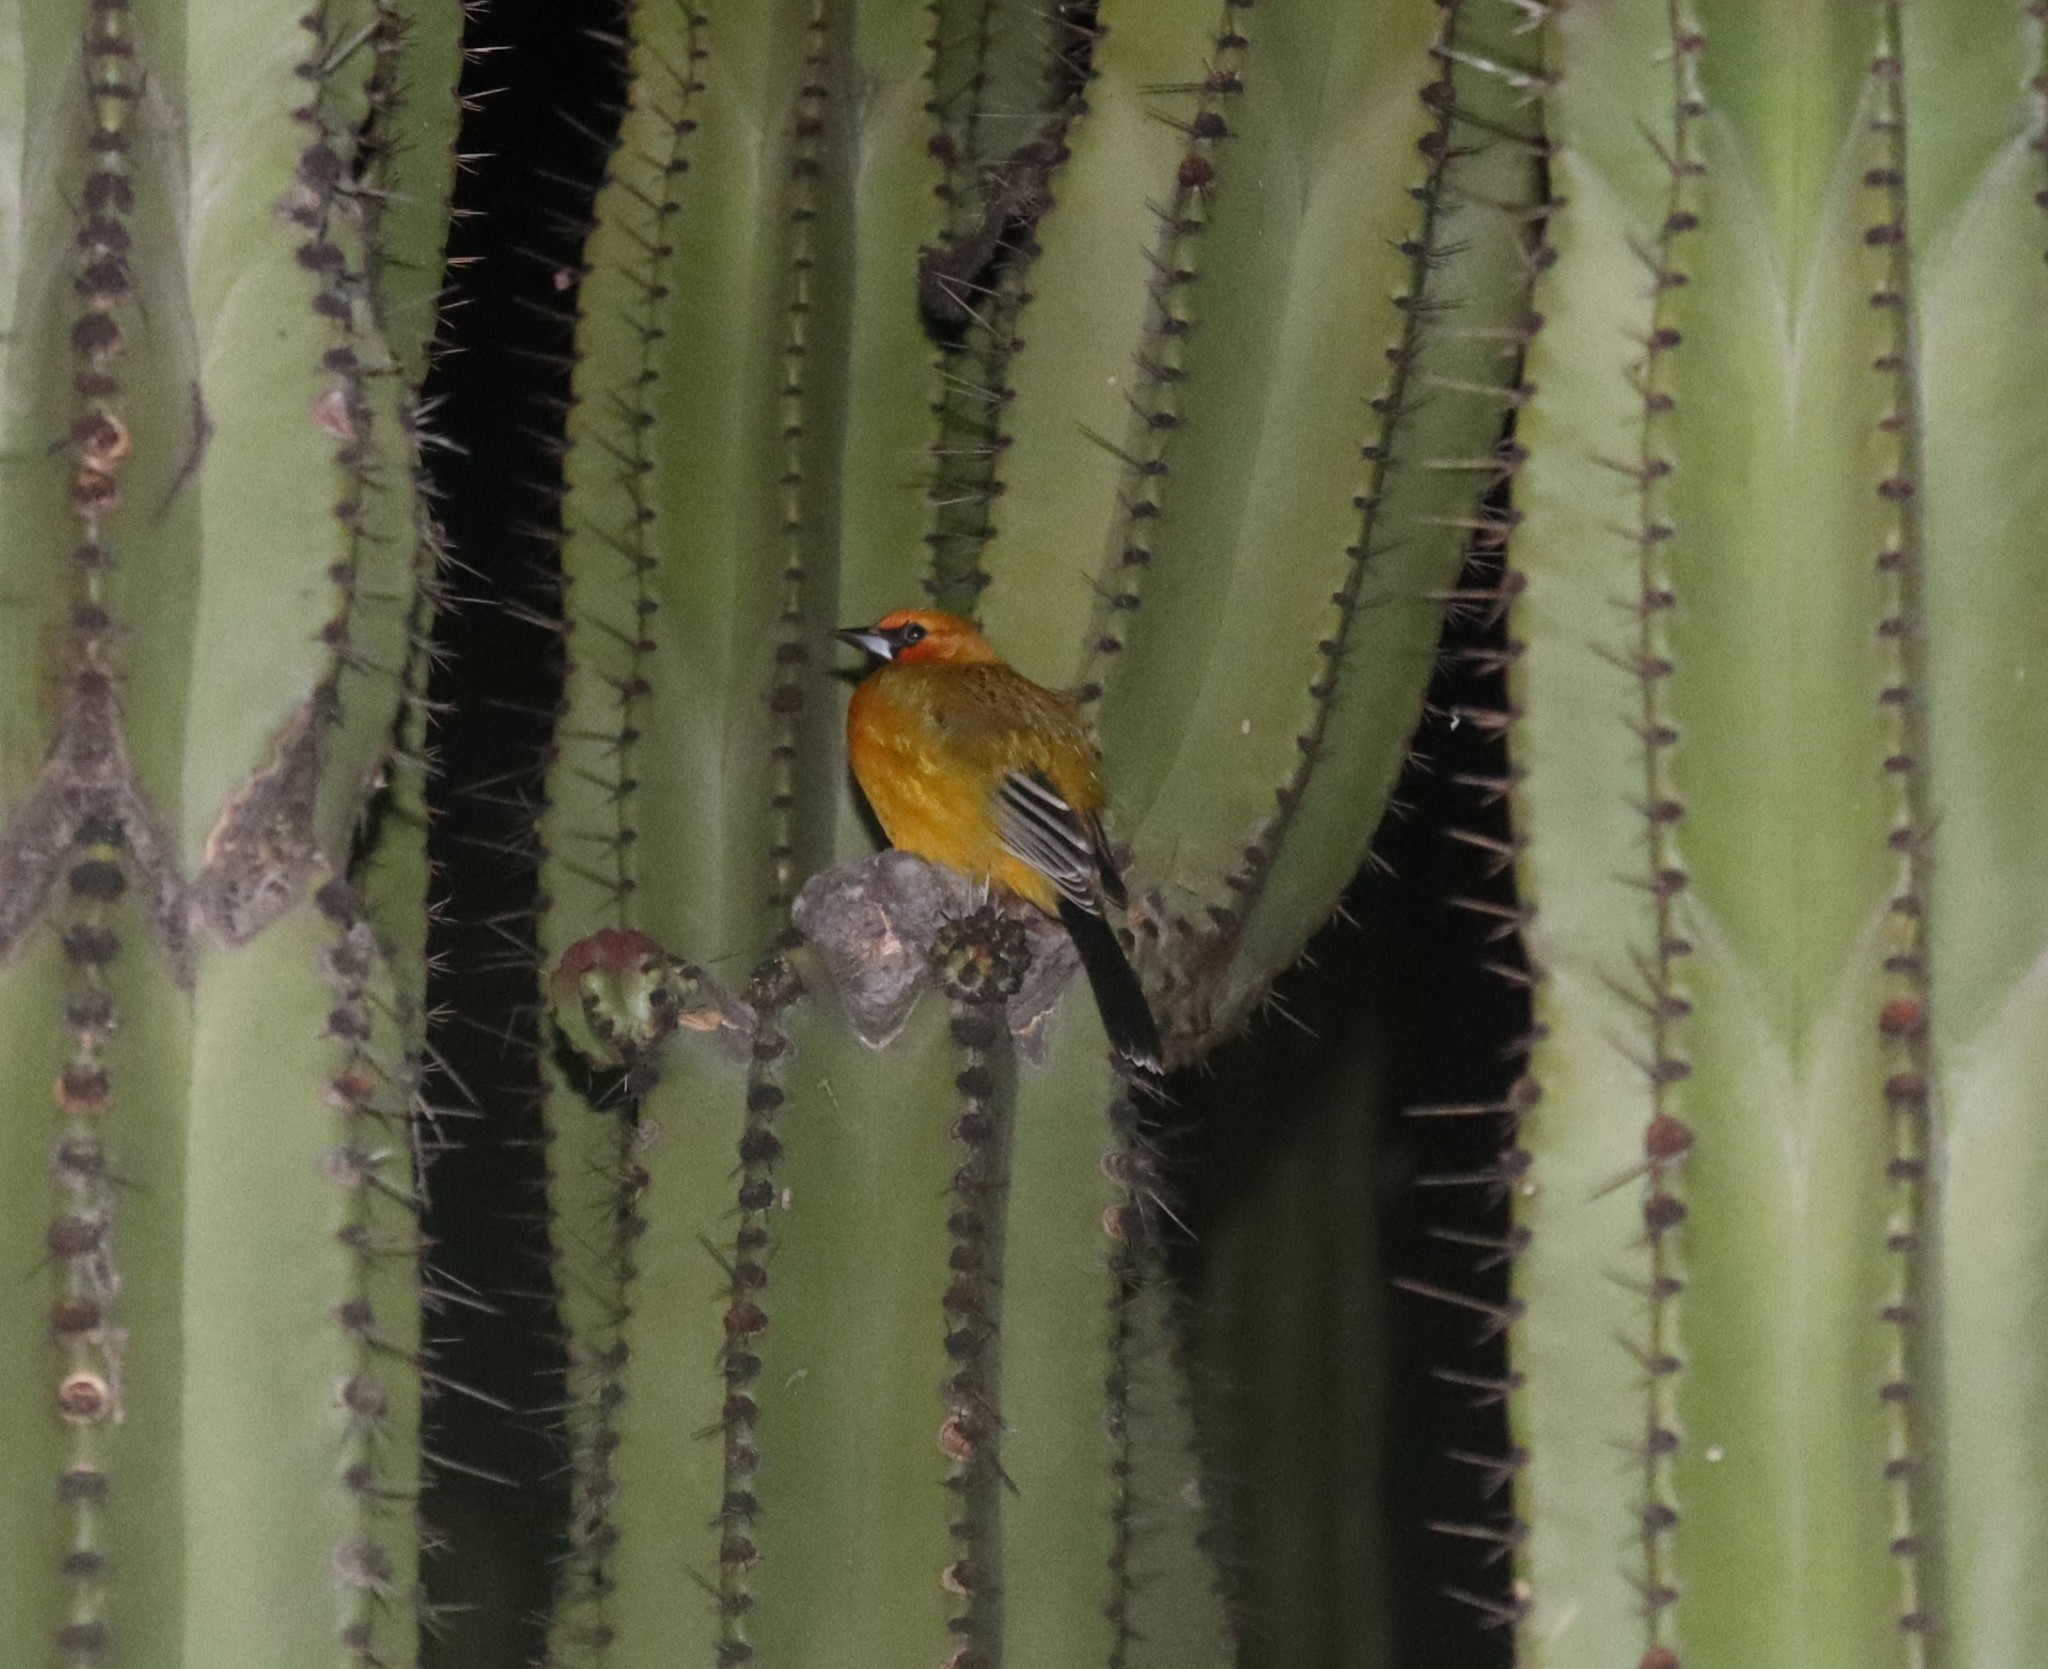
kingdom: Animalia
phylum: Chordata
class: Aves
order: Passeriformes
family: Icteridae
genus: Icterus
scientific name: Icterus pustulatus
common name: Streak-backed oriole
